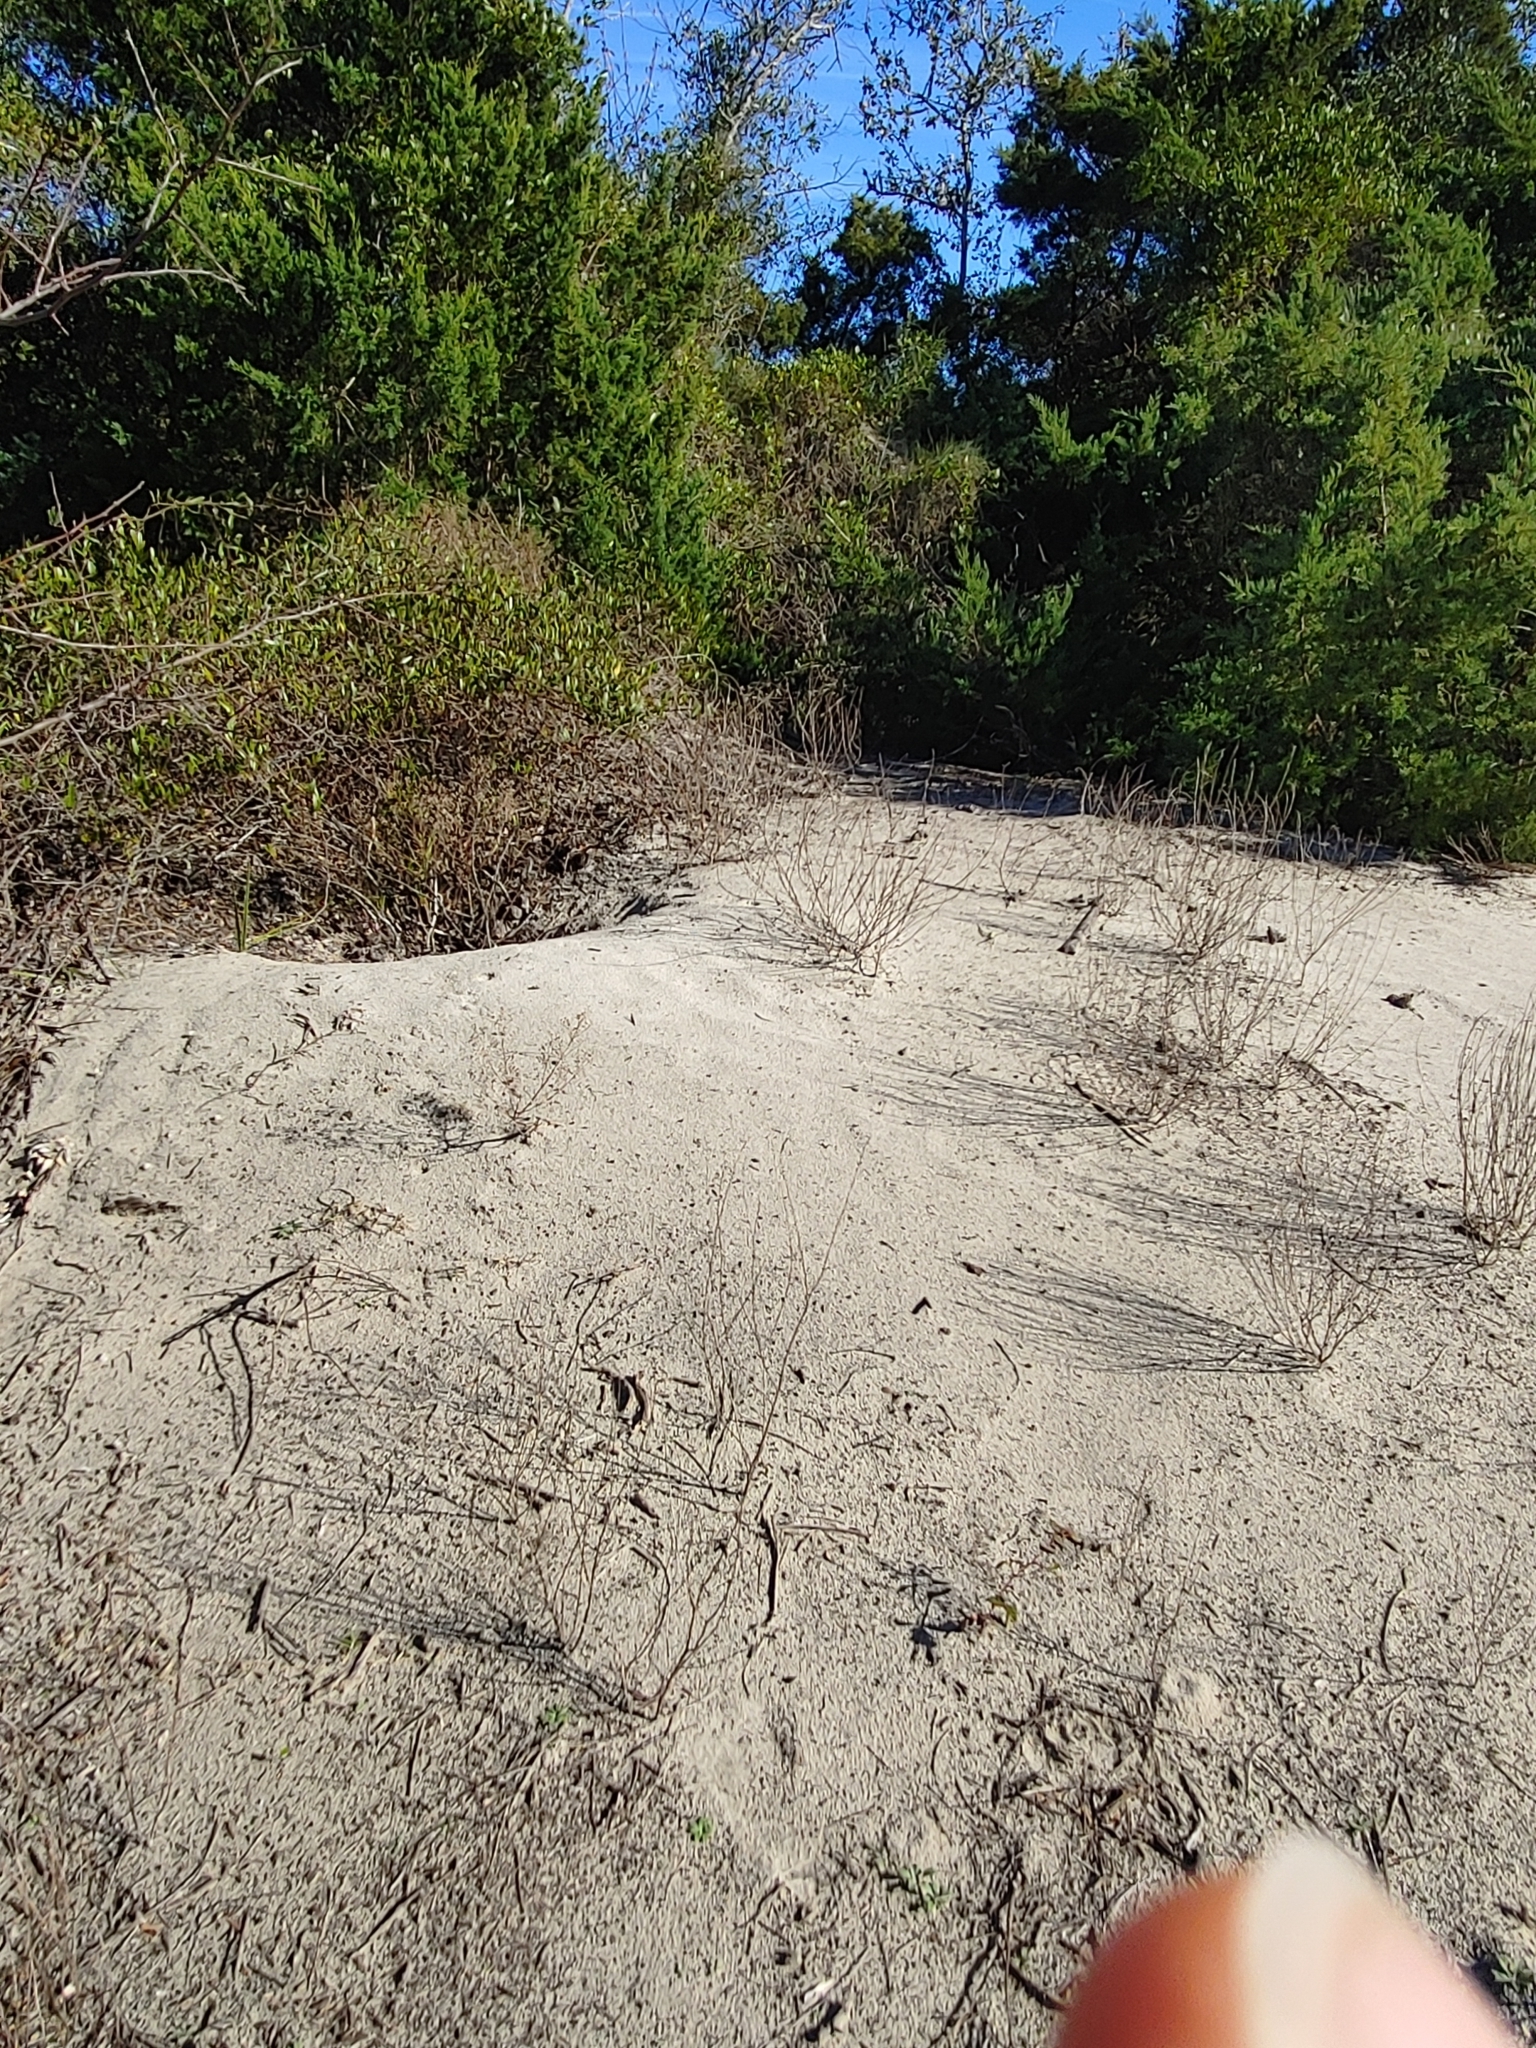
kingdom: Animalia
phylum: Chordata
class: Testudines
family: Testudinidae
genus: Gopherus
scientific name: Gopherus polyphemus
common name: Florida gopher tortoise
